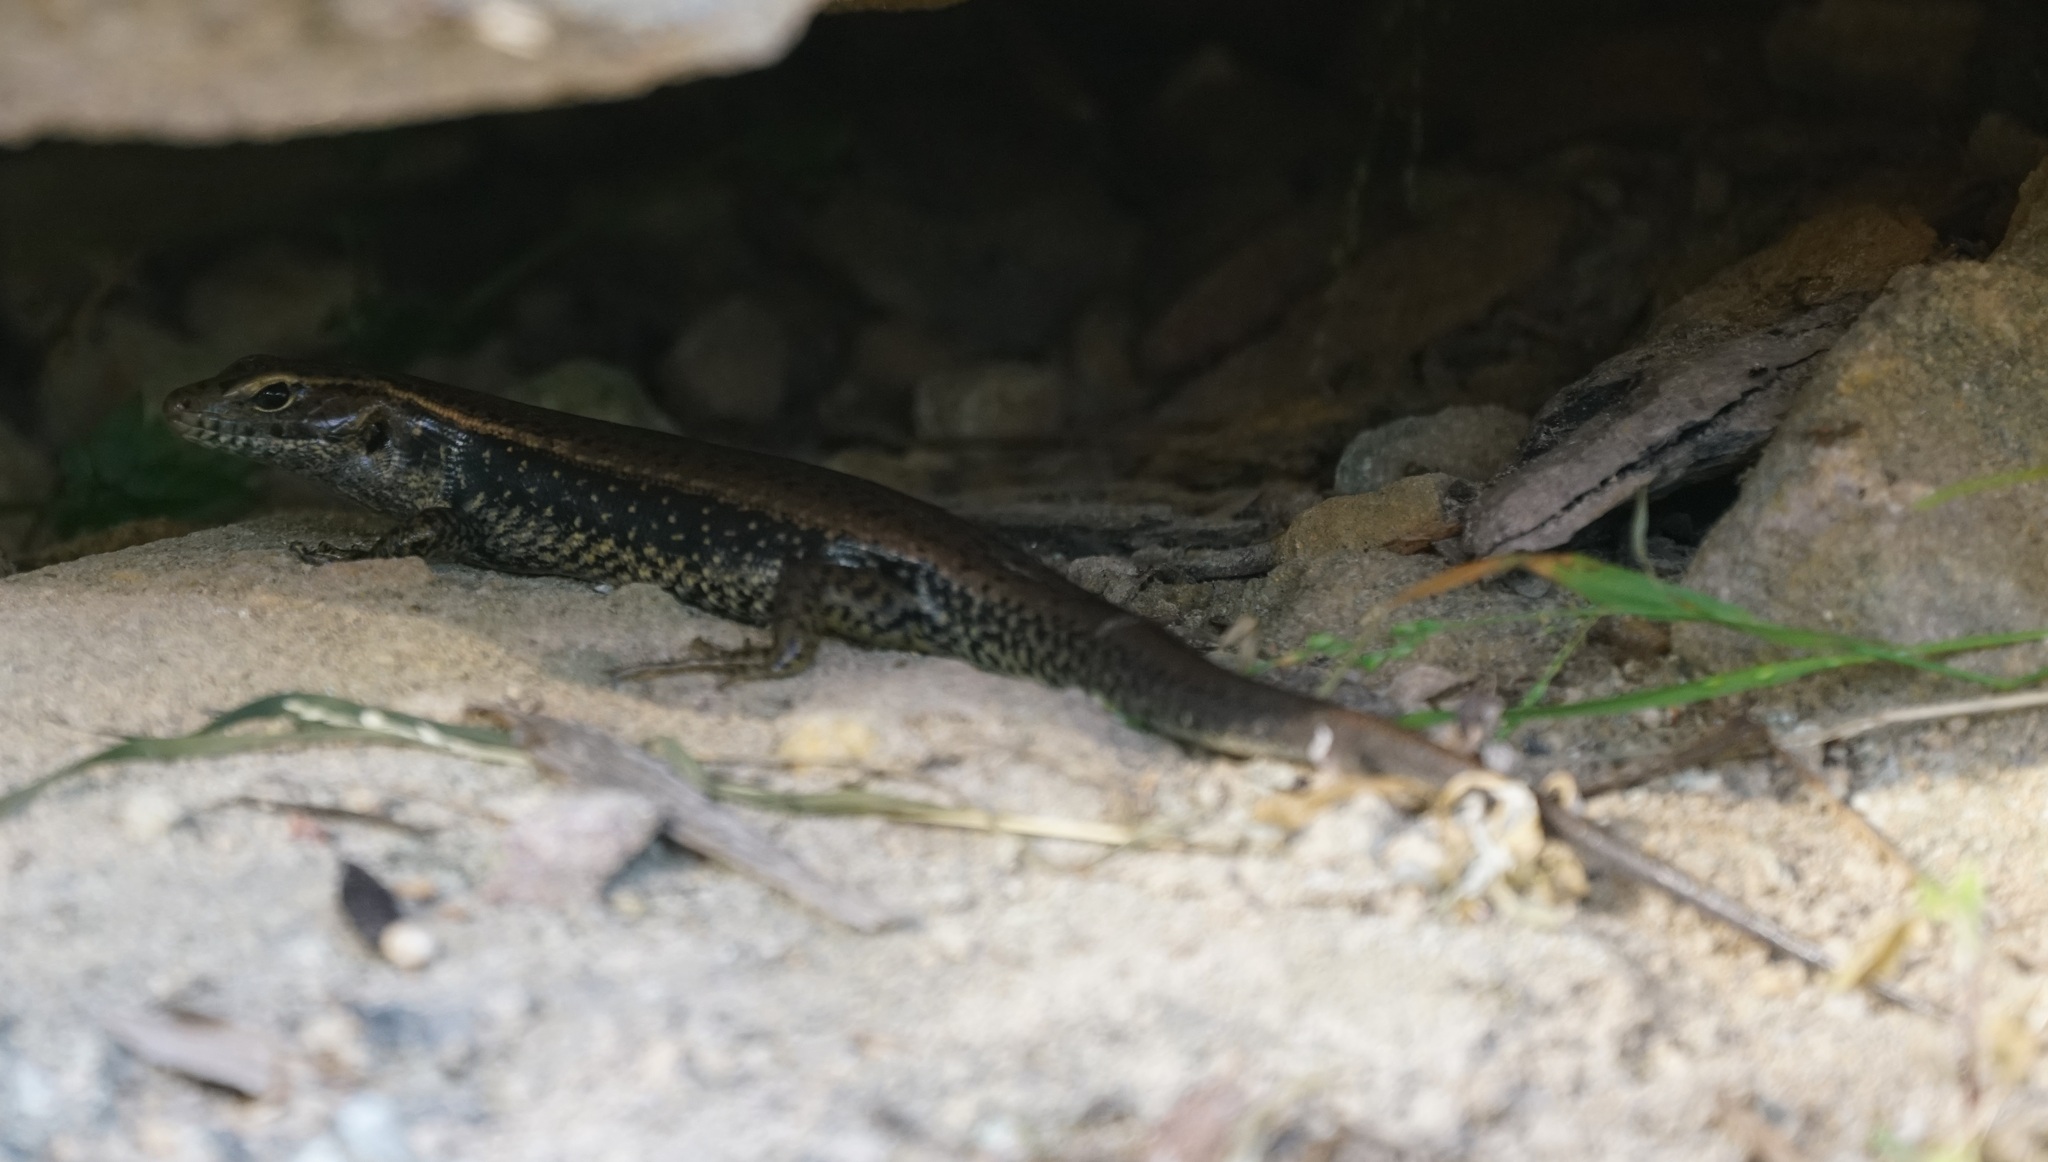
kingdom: Animalia
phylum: Chordata
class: Squamata
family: Scincidae
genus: Eulamprus
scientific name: Eulamprus quoyii
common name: Eastern water skink
